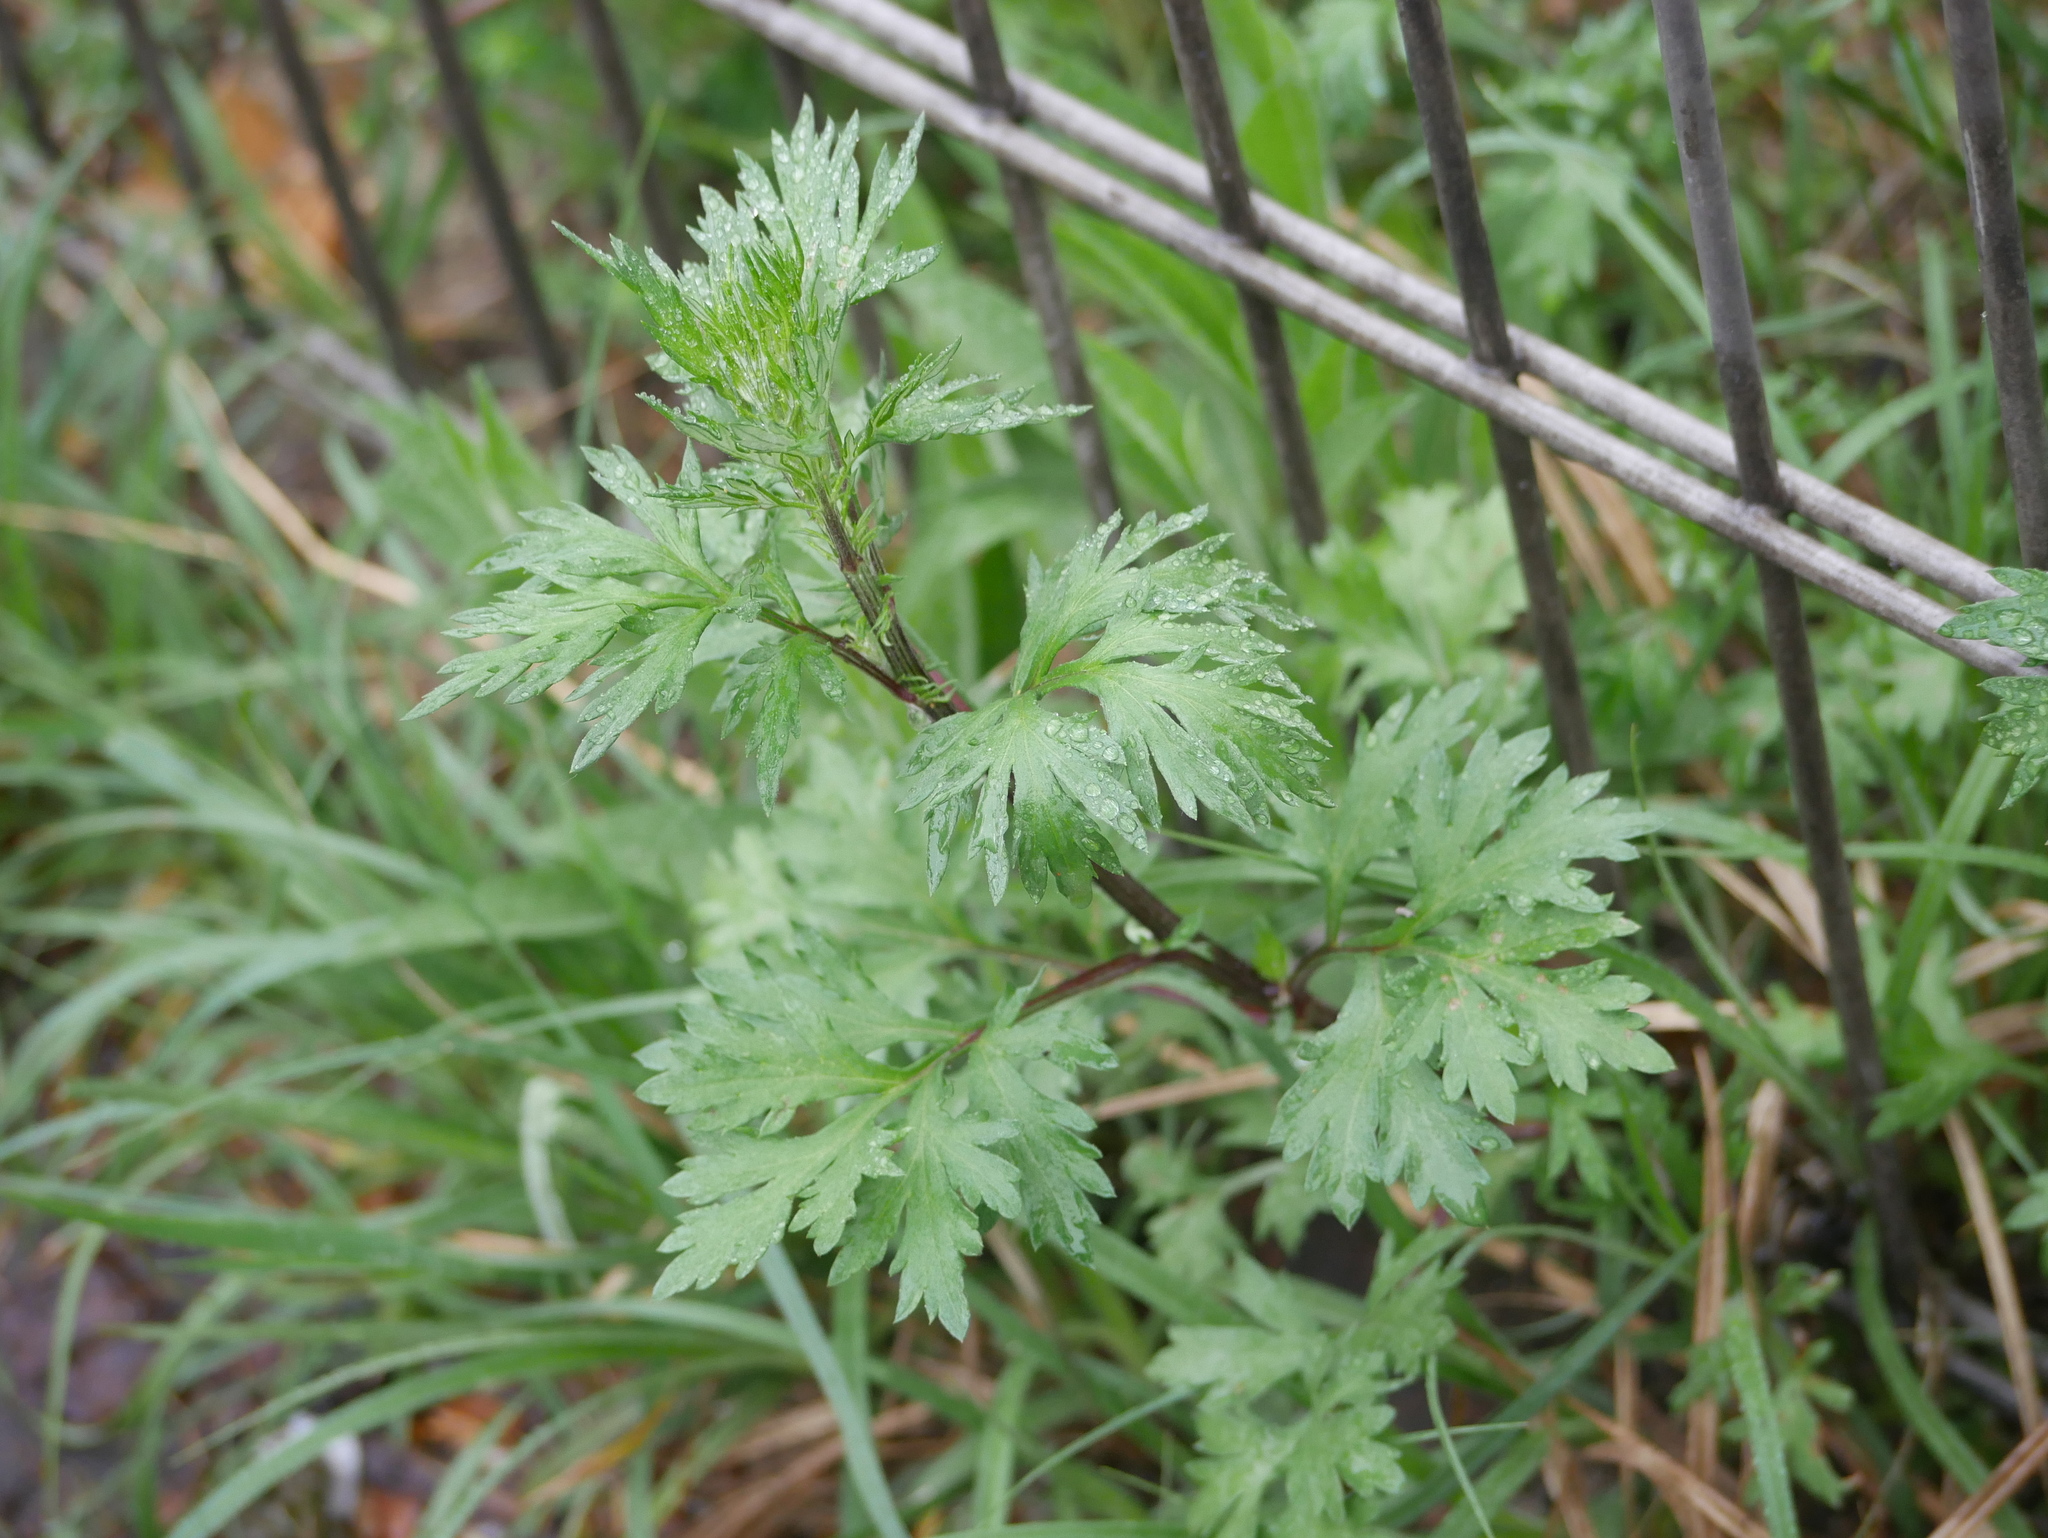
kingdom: Plantae
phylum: Tracheophyta
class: Magnoliopsida
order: Asterales
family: Asteraceae
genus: Artemisia
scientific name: Artemisia vulgaris
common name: Mugwort
